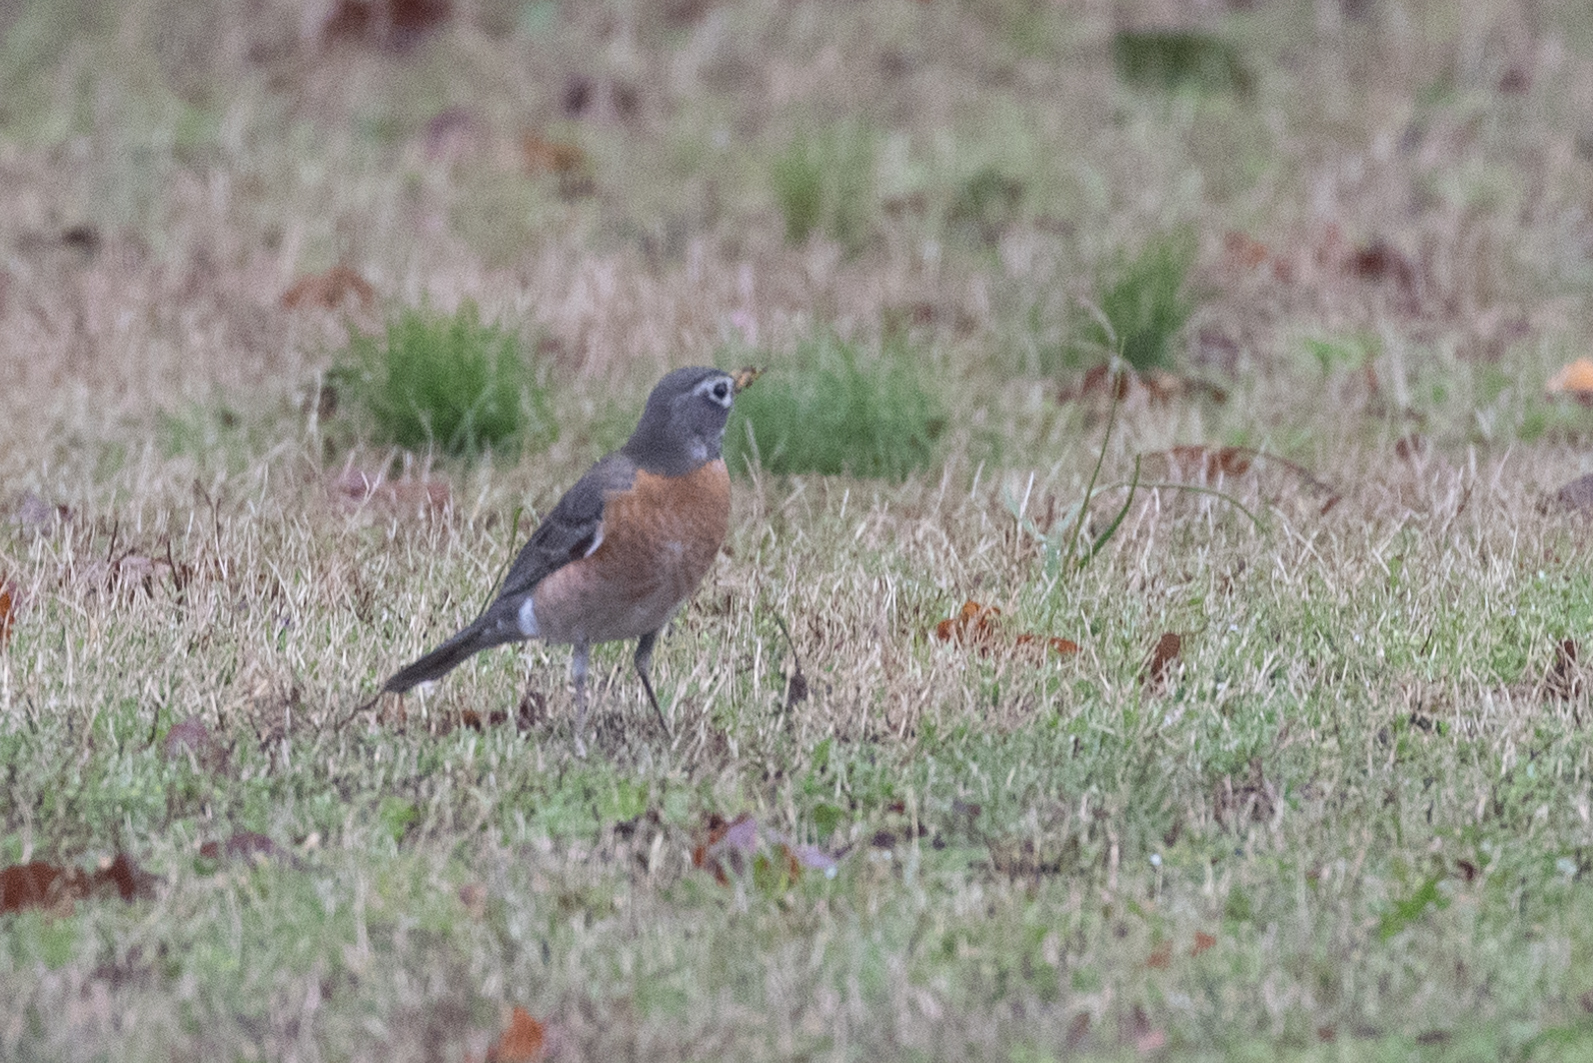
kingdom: Animalia
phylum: Chordata
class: Aves
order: Passeriformes
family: Turdidae
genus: Turdus
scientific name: Turdus migratorius
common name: American robin
